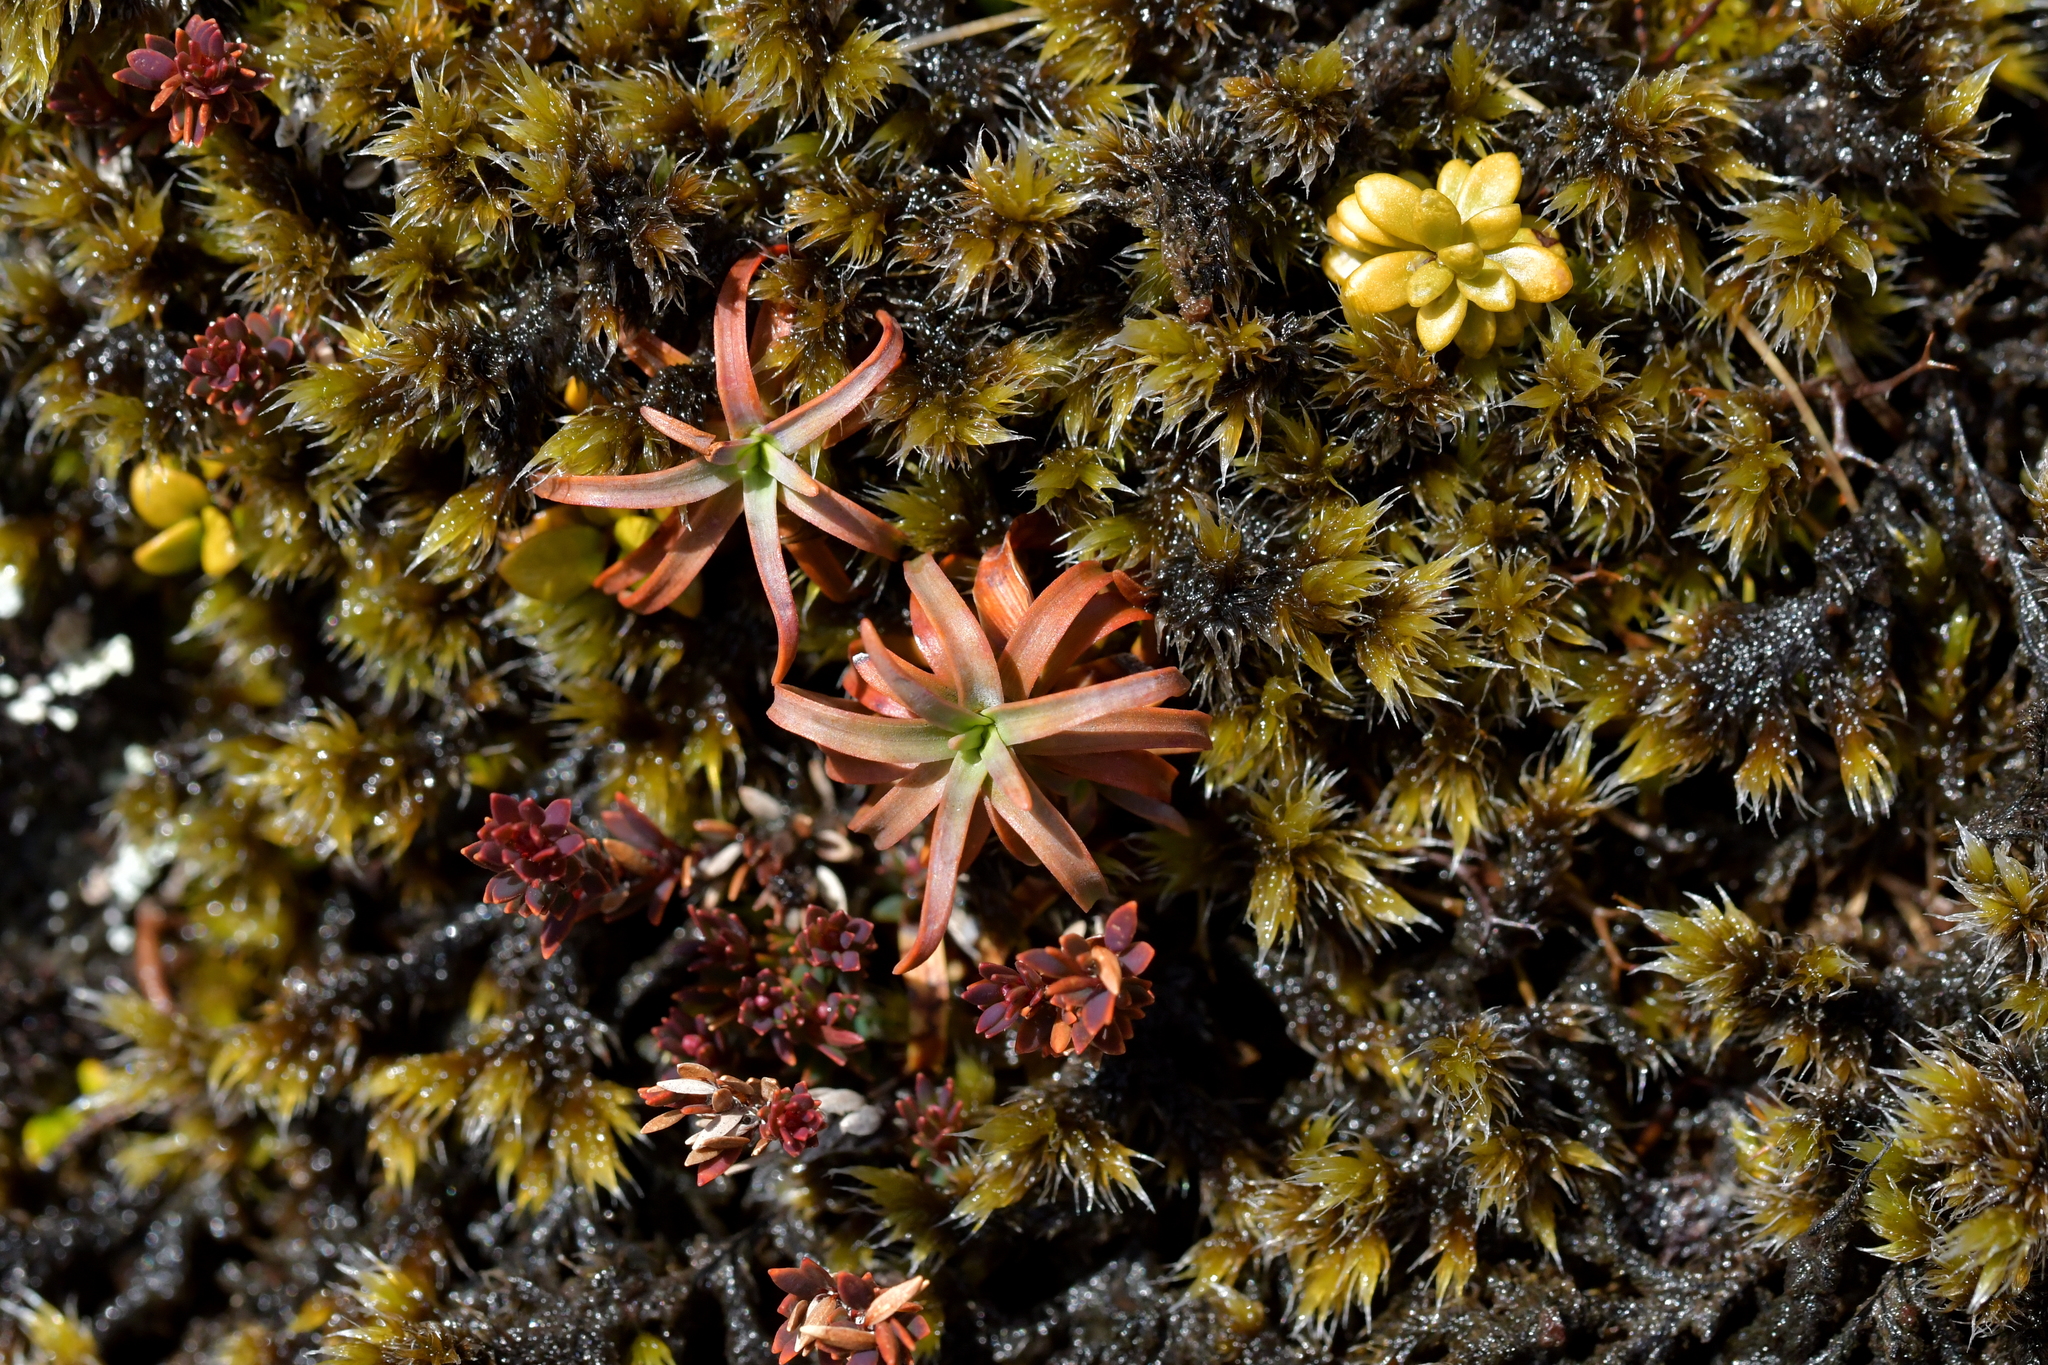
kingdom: Plantae
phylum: Tracheophyta
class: Magnoliopsida
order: Ericales
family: Ericaceae
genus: Dracophyllum
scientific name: Dracophyllum recurvum
